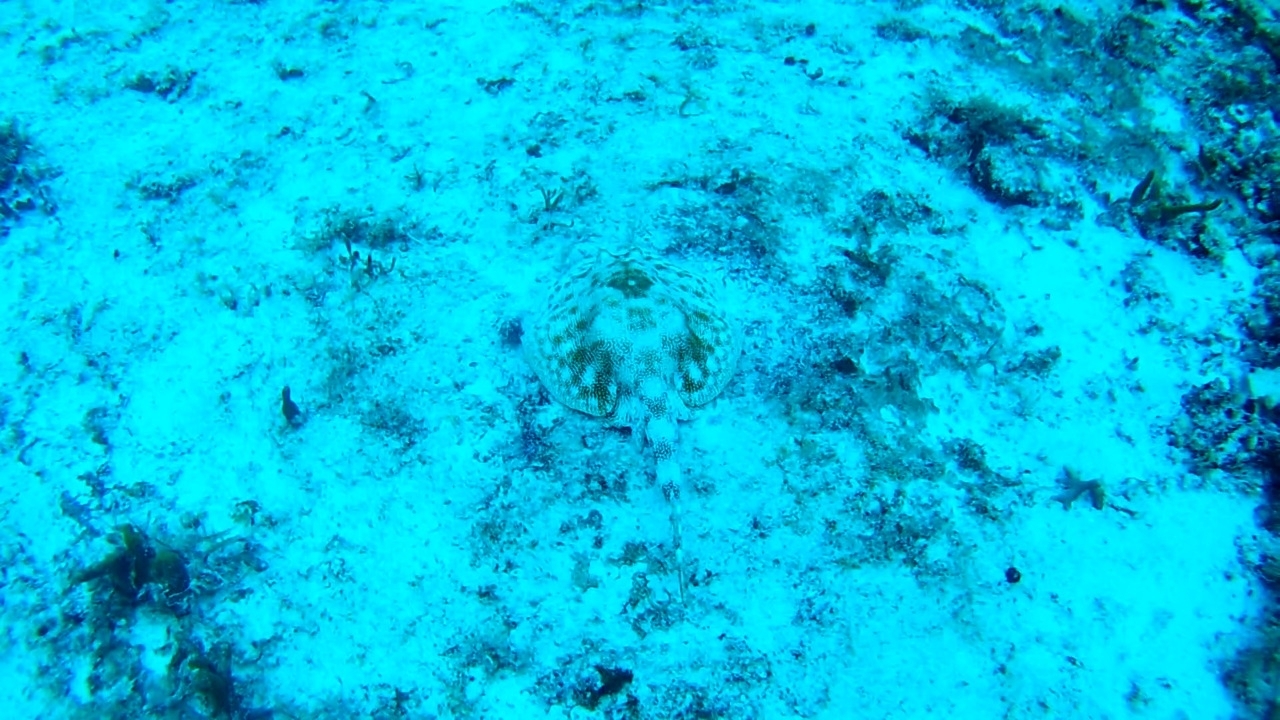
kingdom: Animalia
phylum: Chordata
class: Elasmobranchii
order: Myliobatiformes
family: Urotrygonidae
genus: Urobatis
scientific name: Urobatis jamaicensis
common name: Yellow stingray
